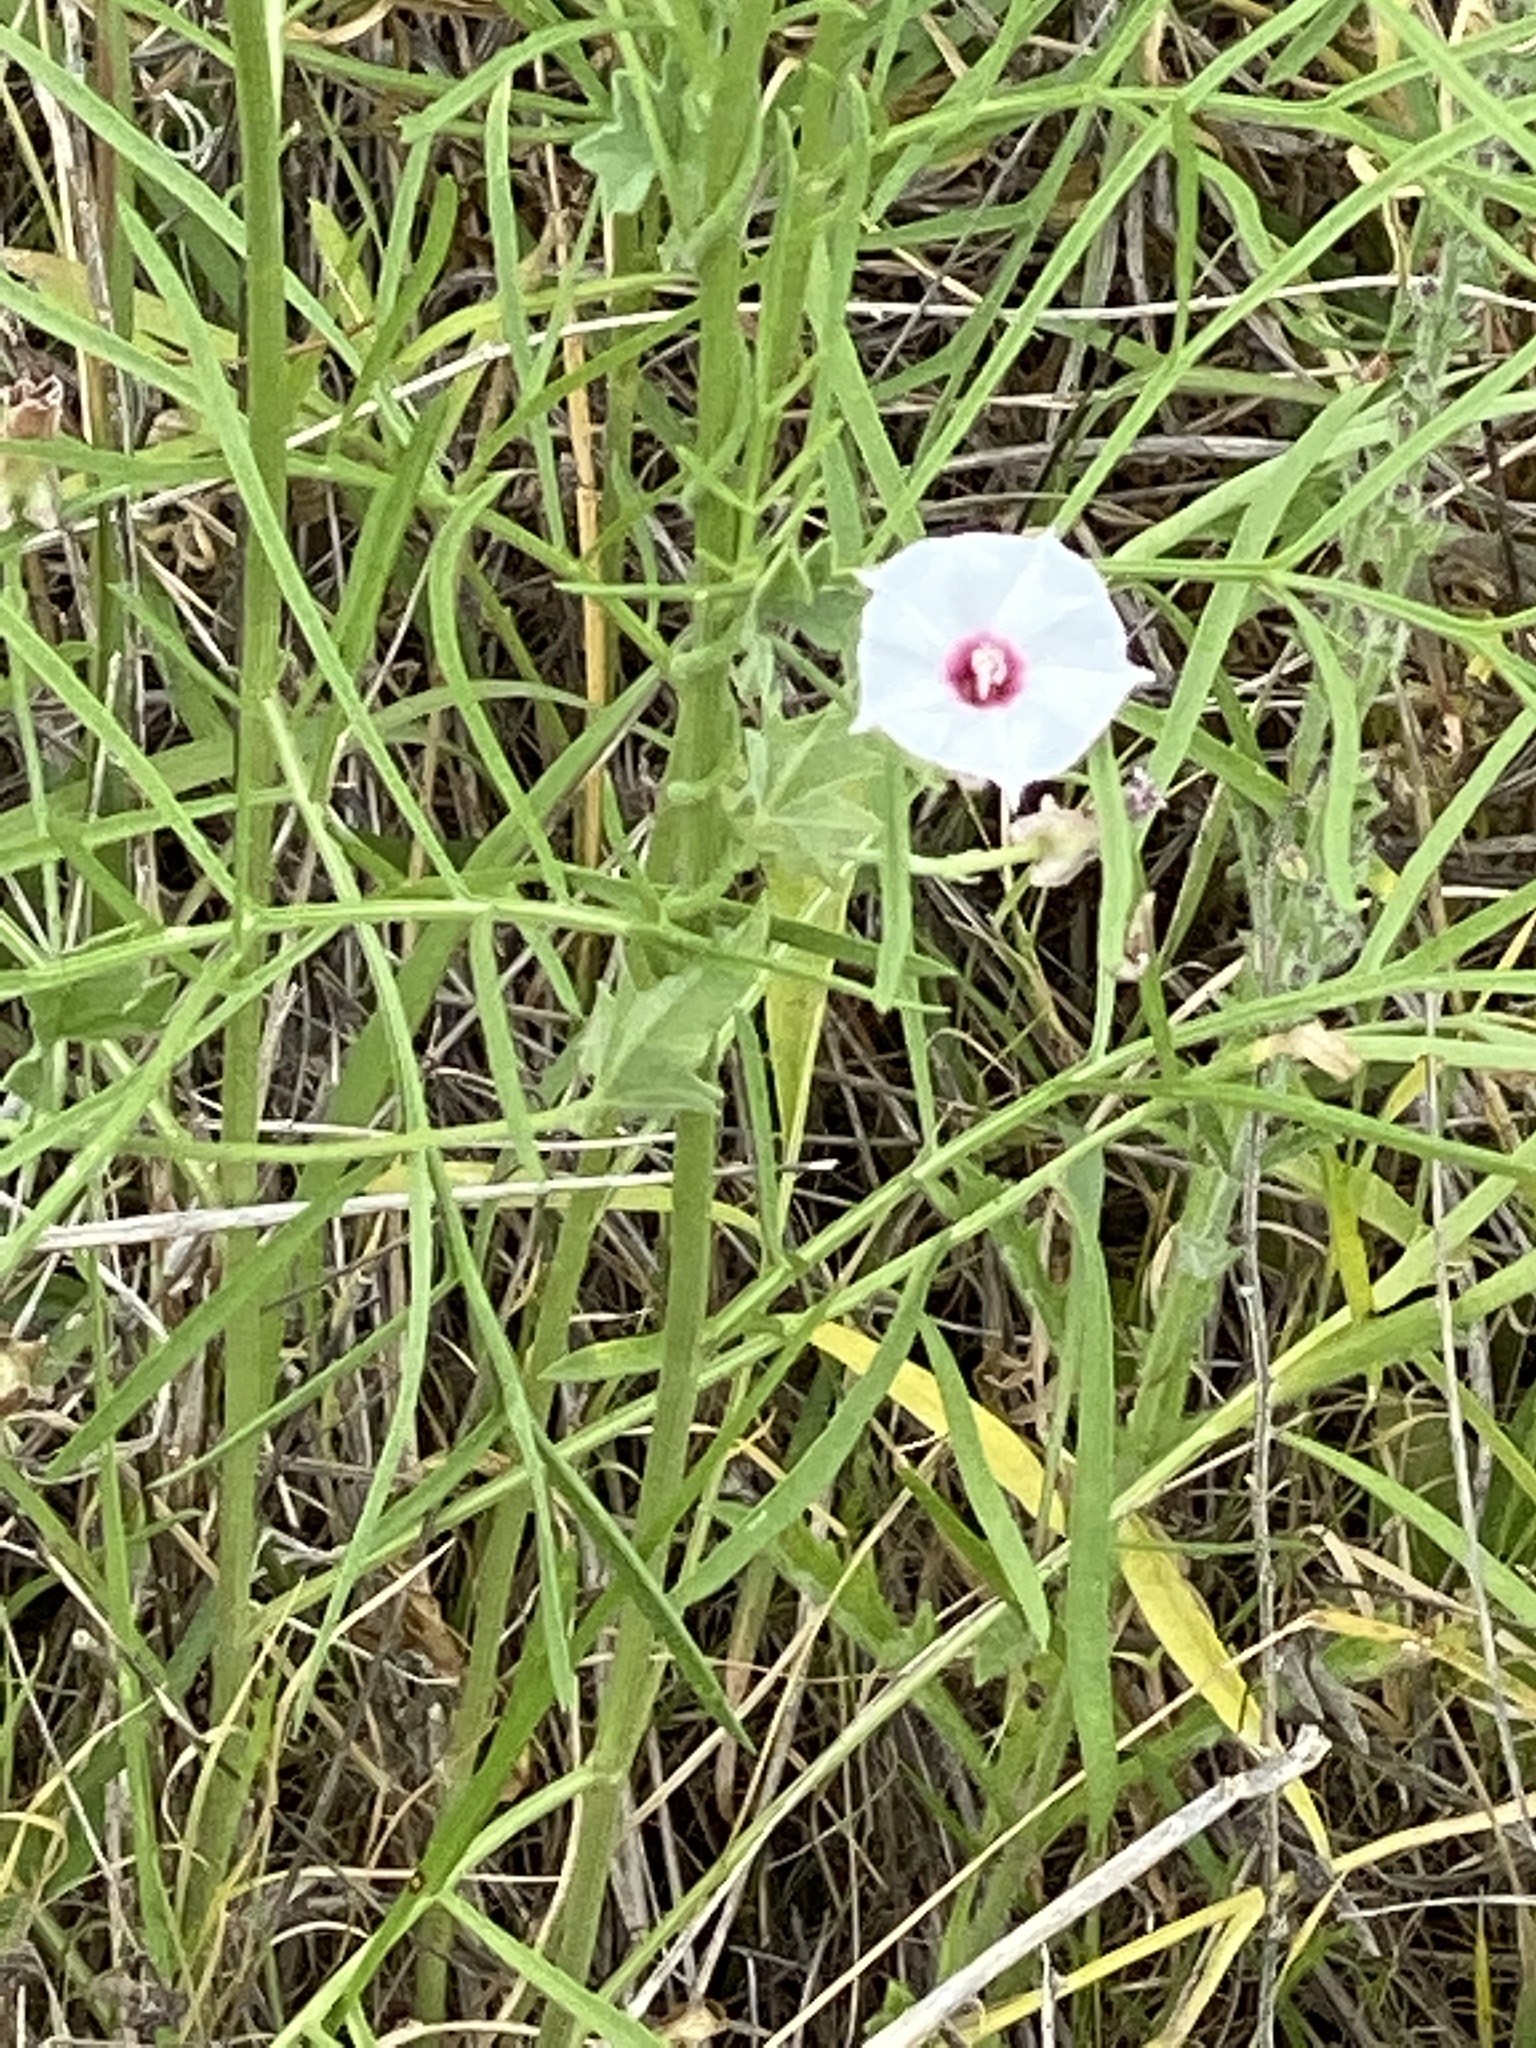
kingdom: Plantae
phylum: Tracheophyta
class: Magnoliopsida
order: Solanales
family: Convolvulaceae
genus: Convolvulus
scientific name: Convolvulus equitans
